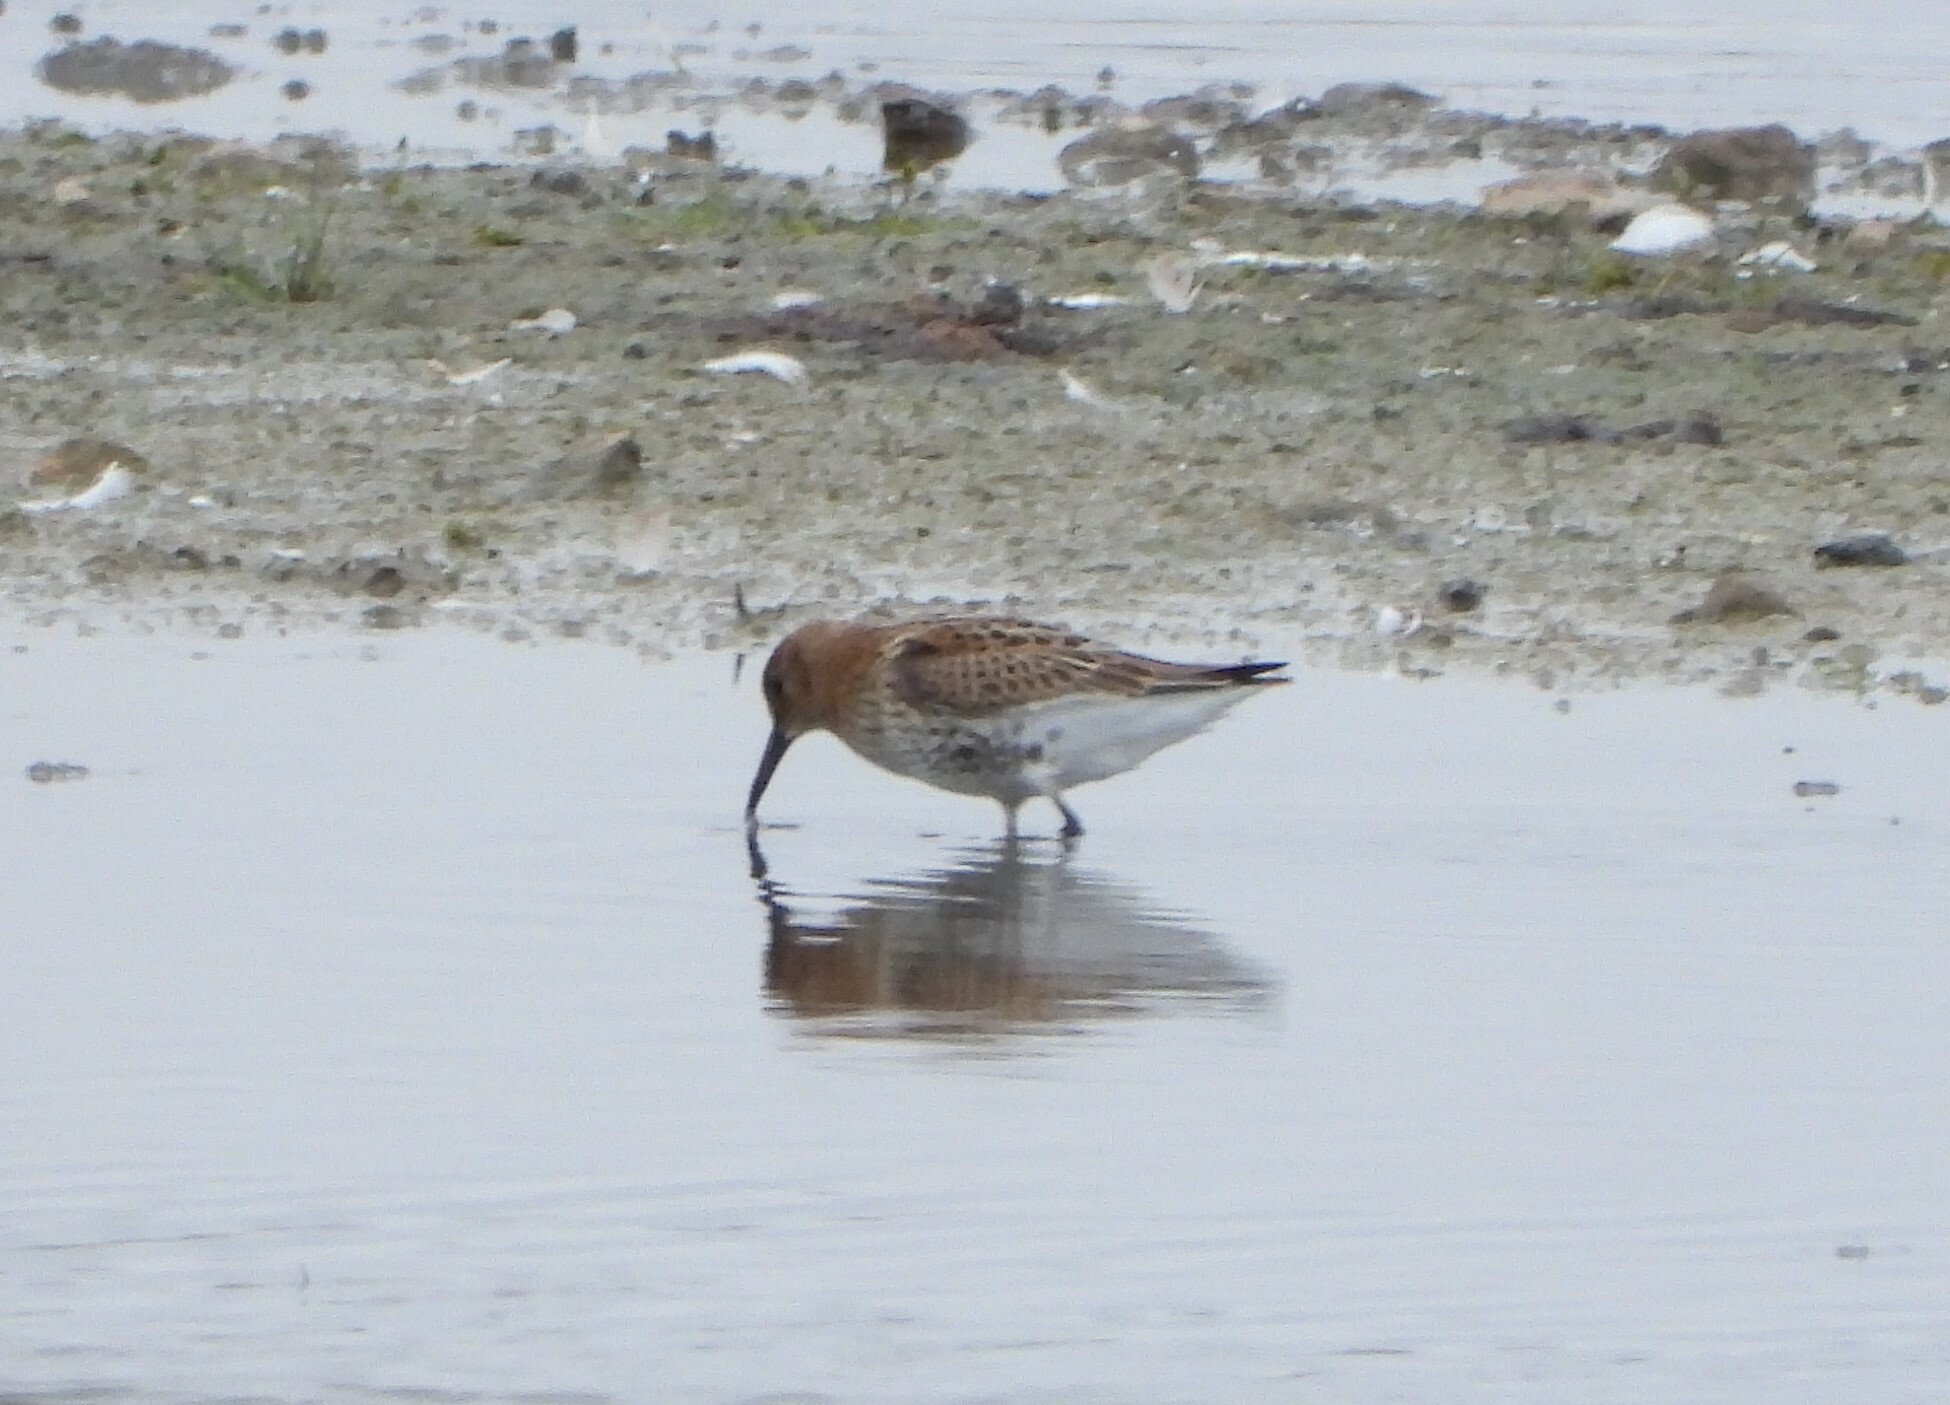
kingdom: Animalia
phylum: Chordata
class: Aves
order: Charadriiformes
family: Scolopacidae
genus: Calidris
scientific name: Calidris alpina
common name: Dunlin
